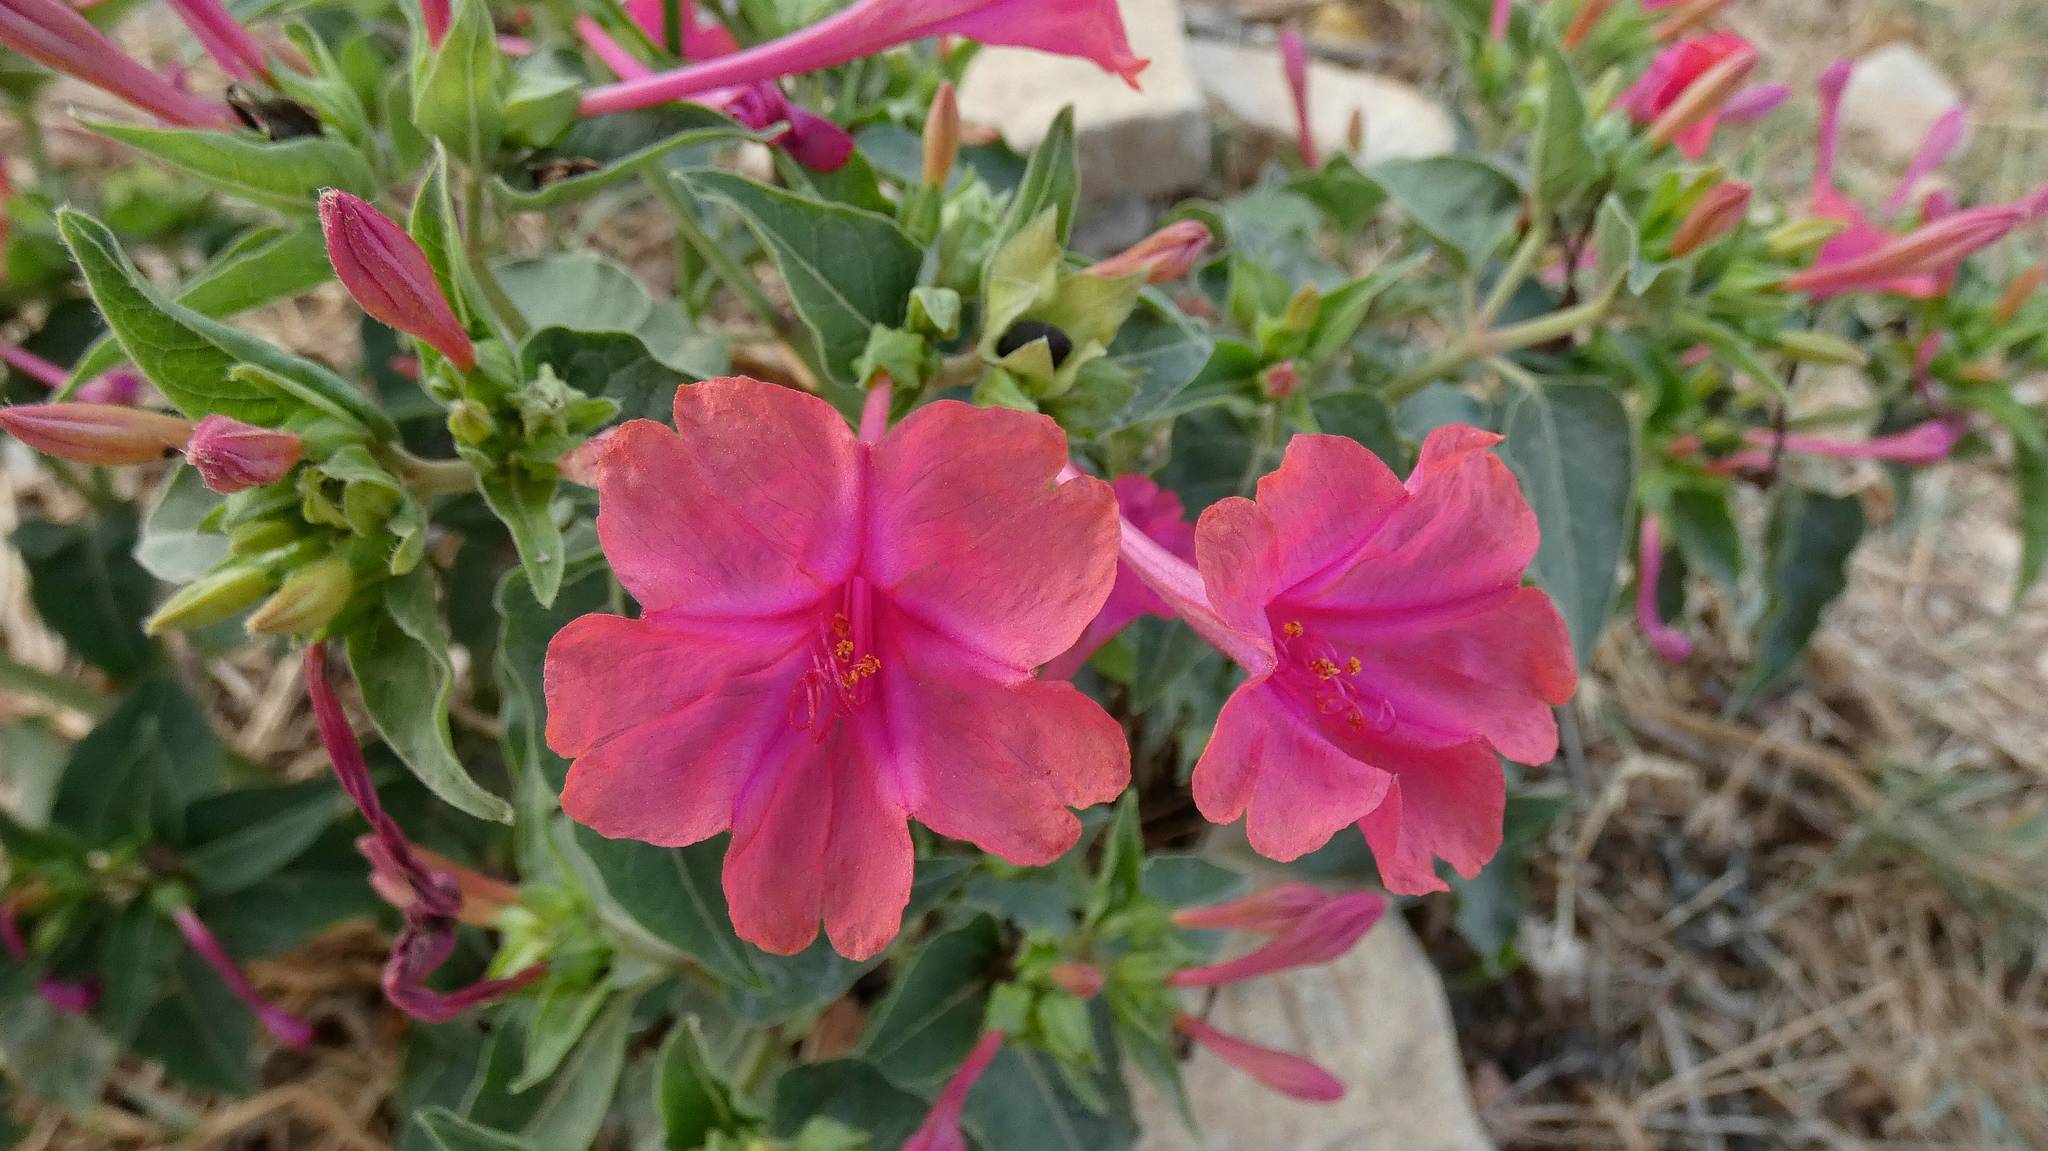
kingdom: Plantae
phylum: Tracheophyta
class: Magnoliopsida
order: Caryophyllales
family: Nyctaginaceae
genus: Mirabilis
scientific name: Mirabilis jalapa
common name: Marvel-of-peru
